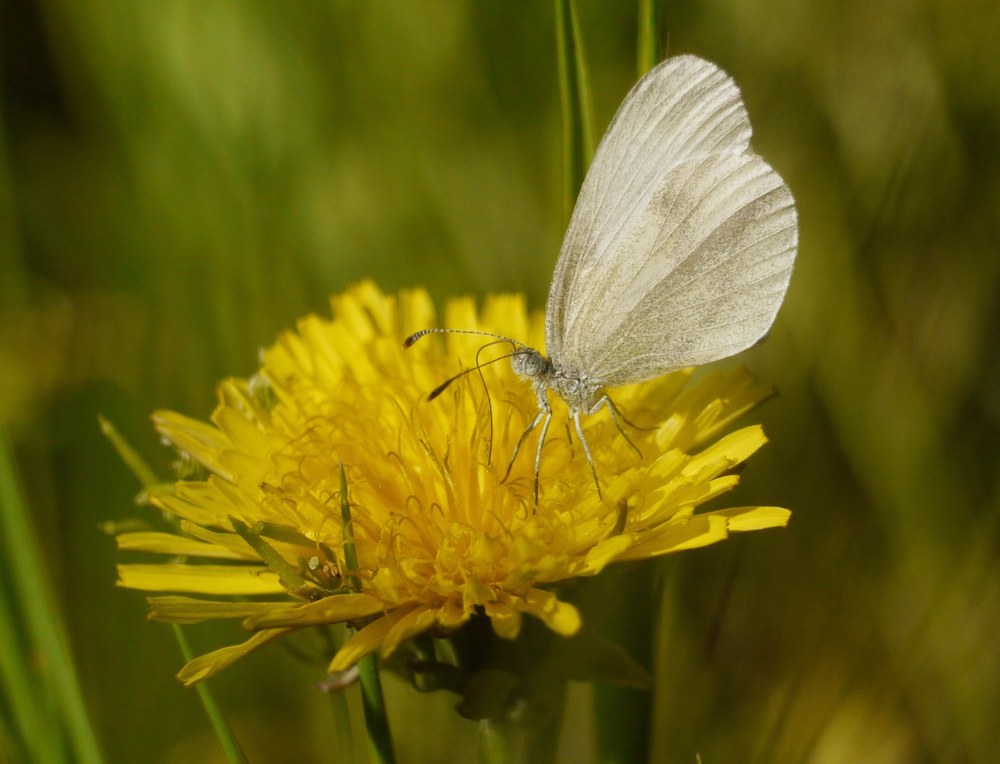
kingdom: Animalia
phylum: Arthropoda
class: Insecta
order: Lepidoptera
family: Pieridae
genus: Leptidea
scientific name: Leptidea
